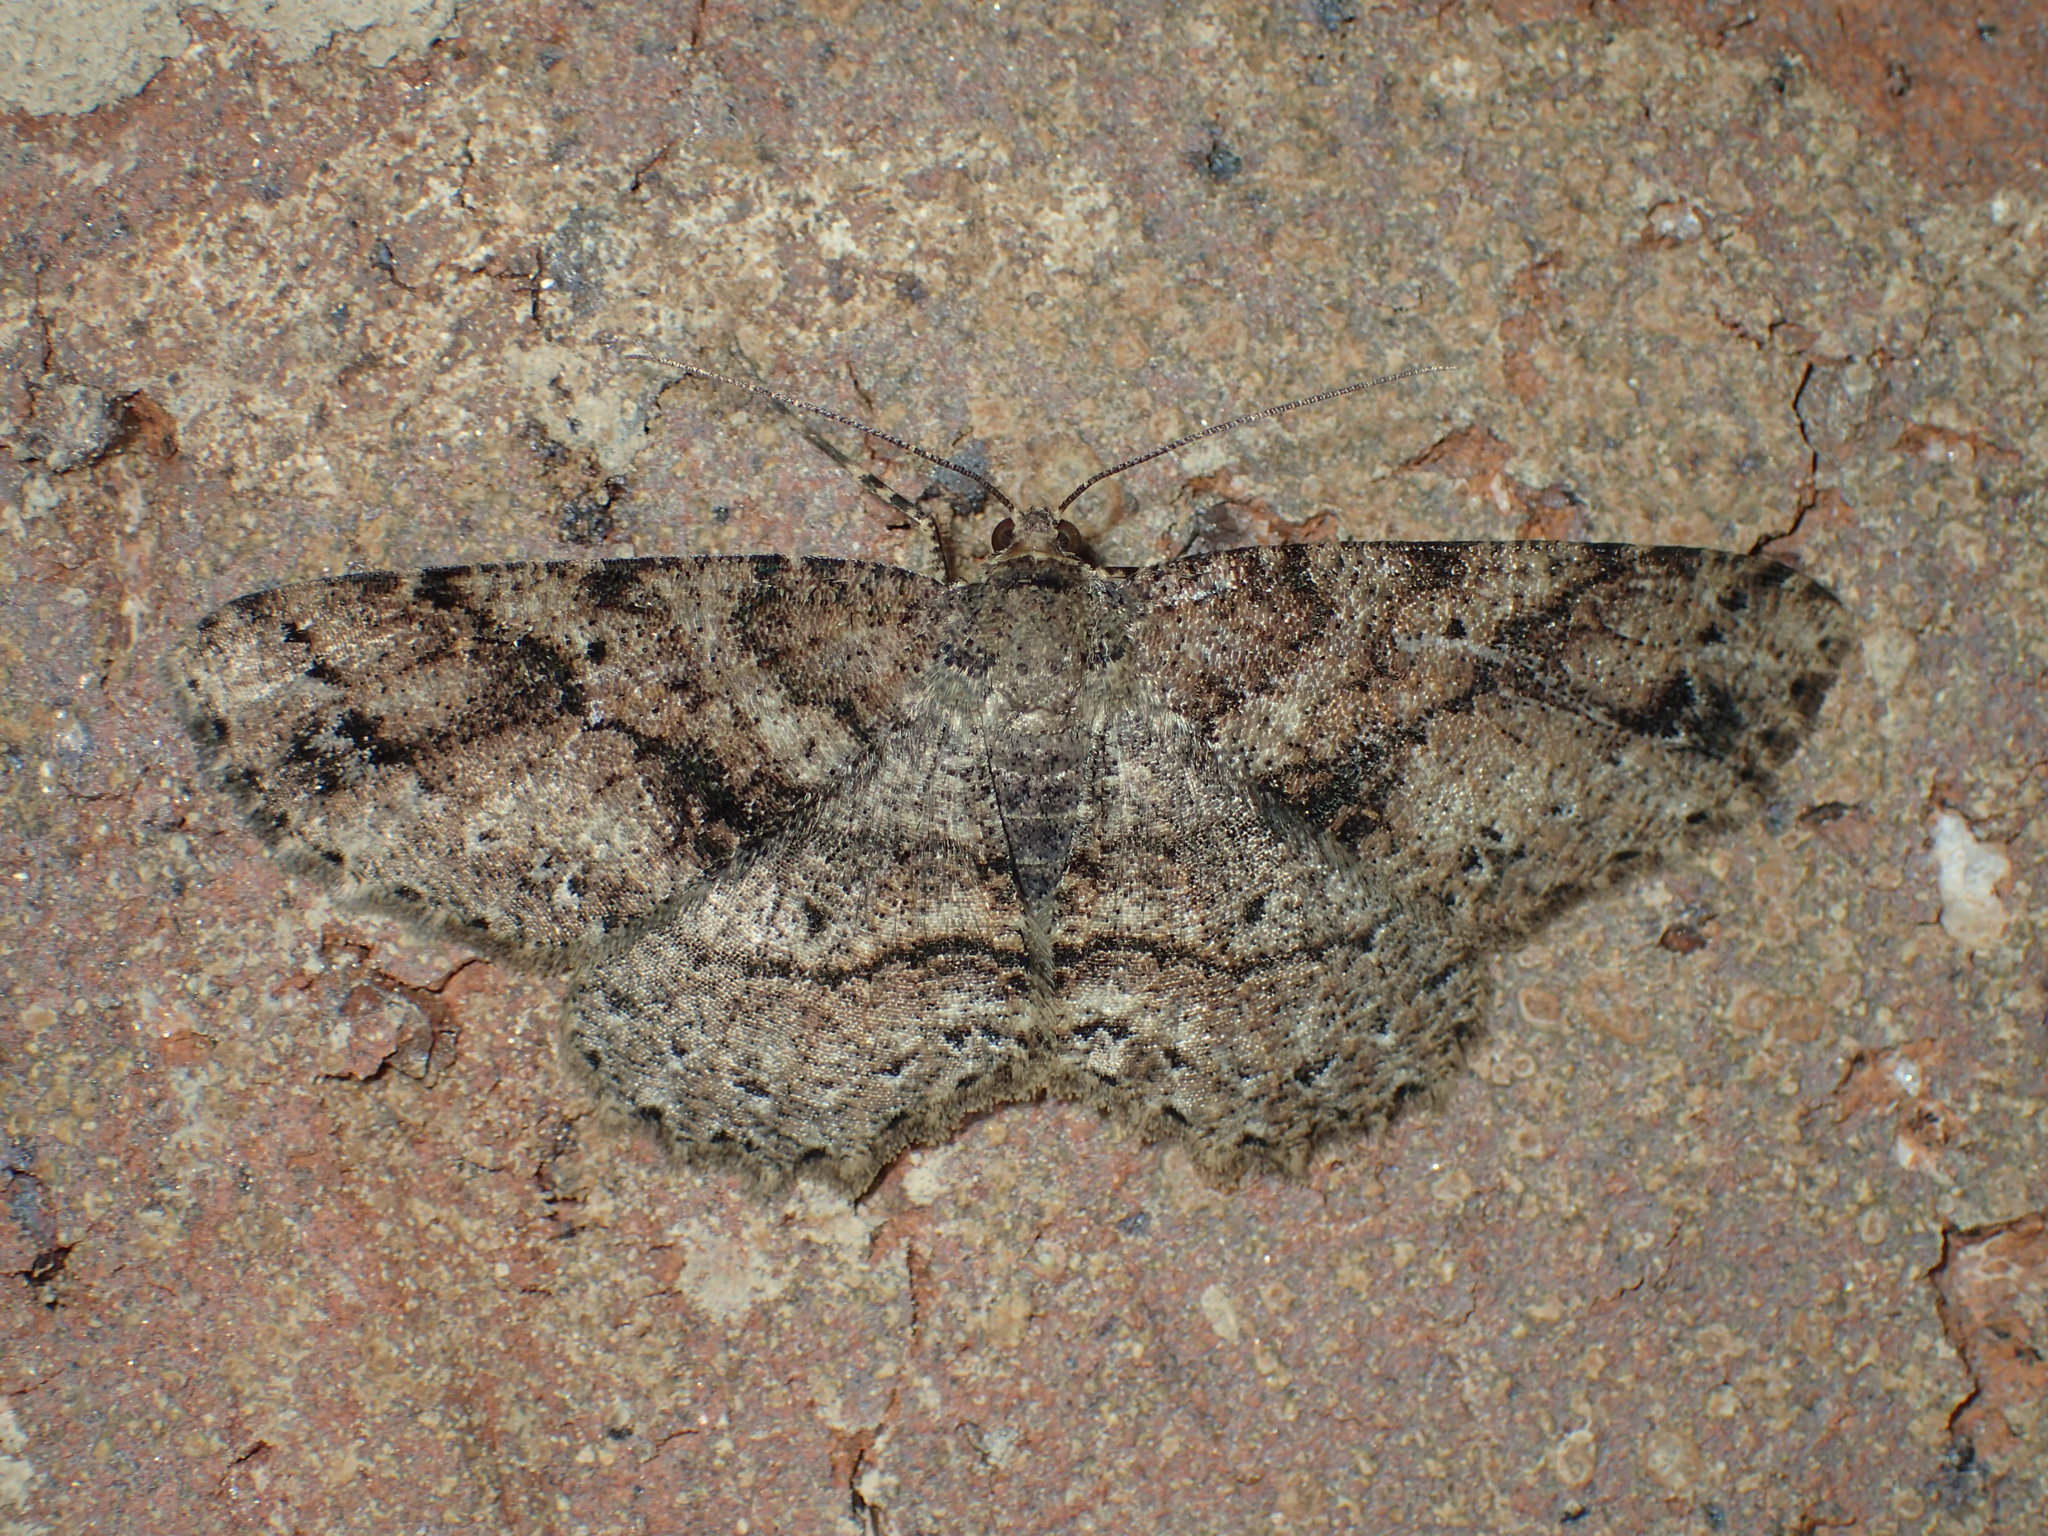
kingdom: Animalia
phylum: Arthropoda
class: Insecta
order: Lepidoptera
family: Geometridae
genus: Melanolophia
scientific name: Melanolophia canadaria
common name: Canadian melanolophia
